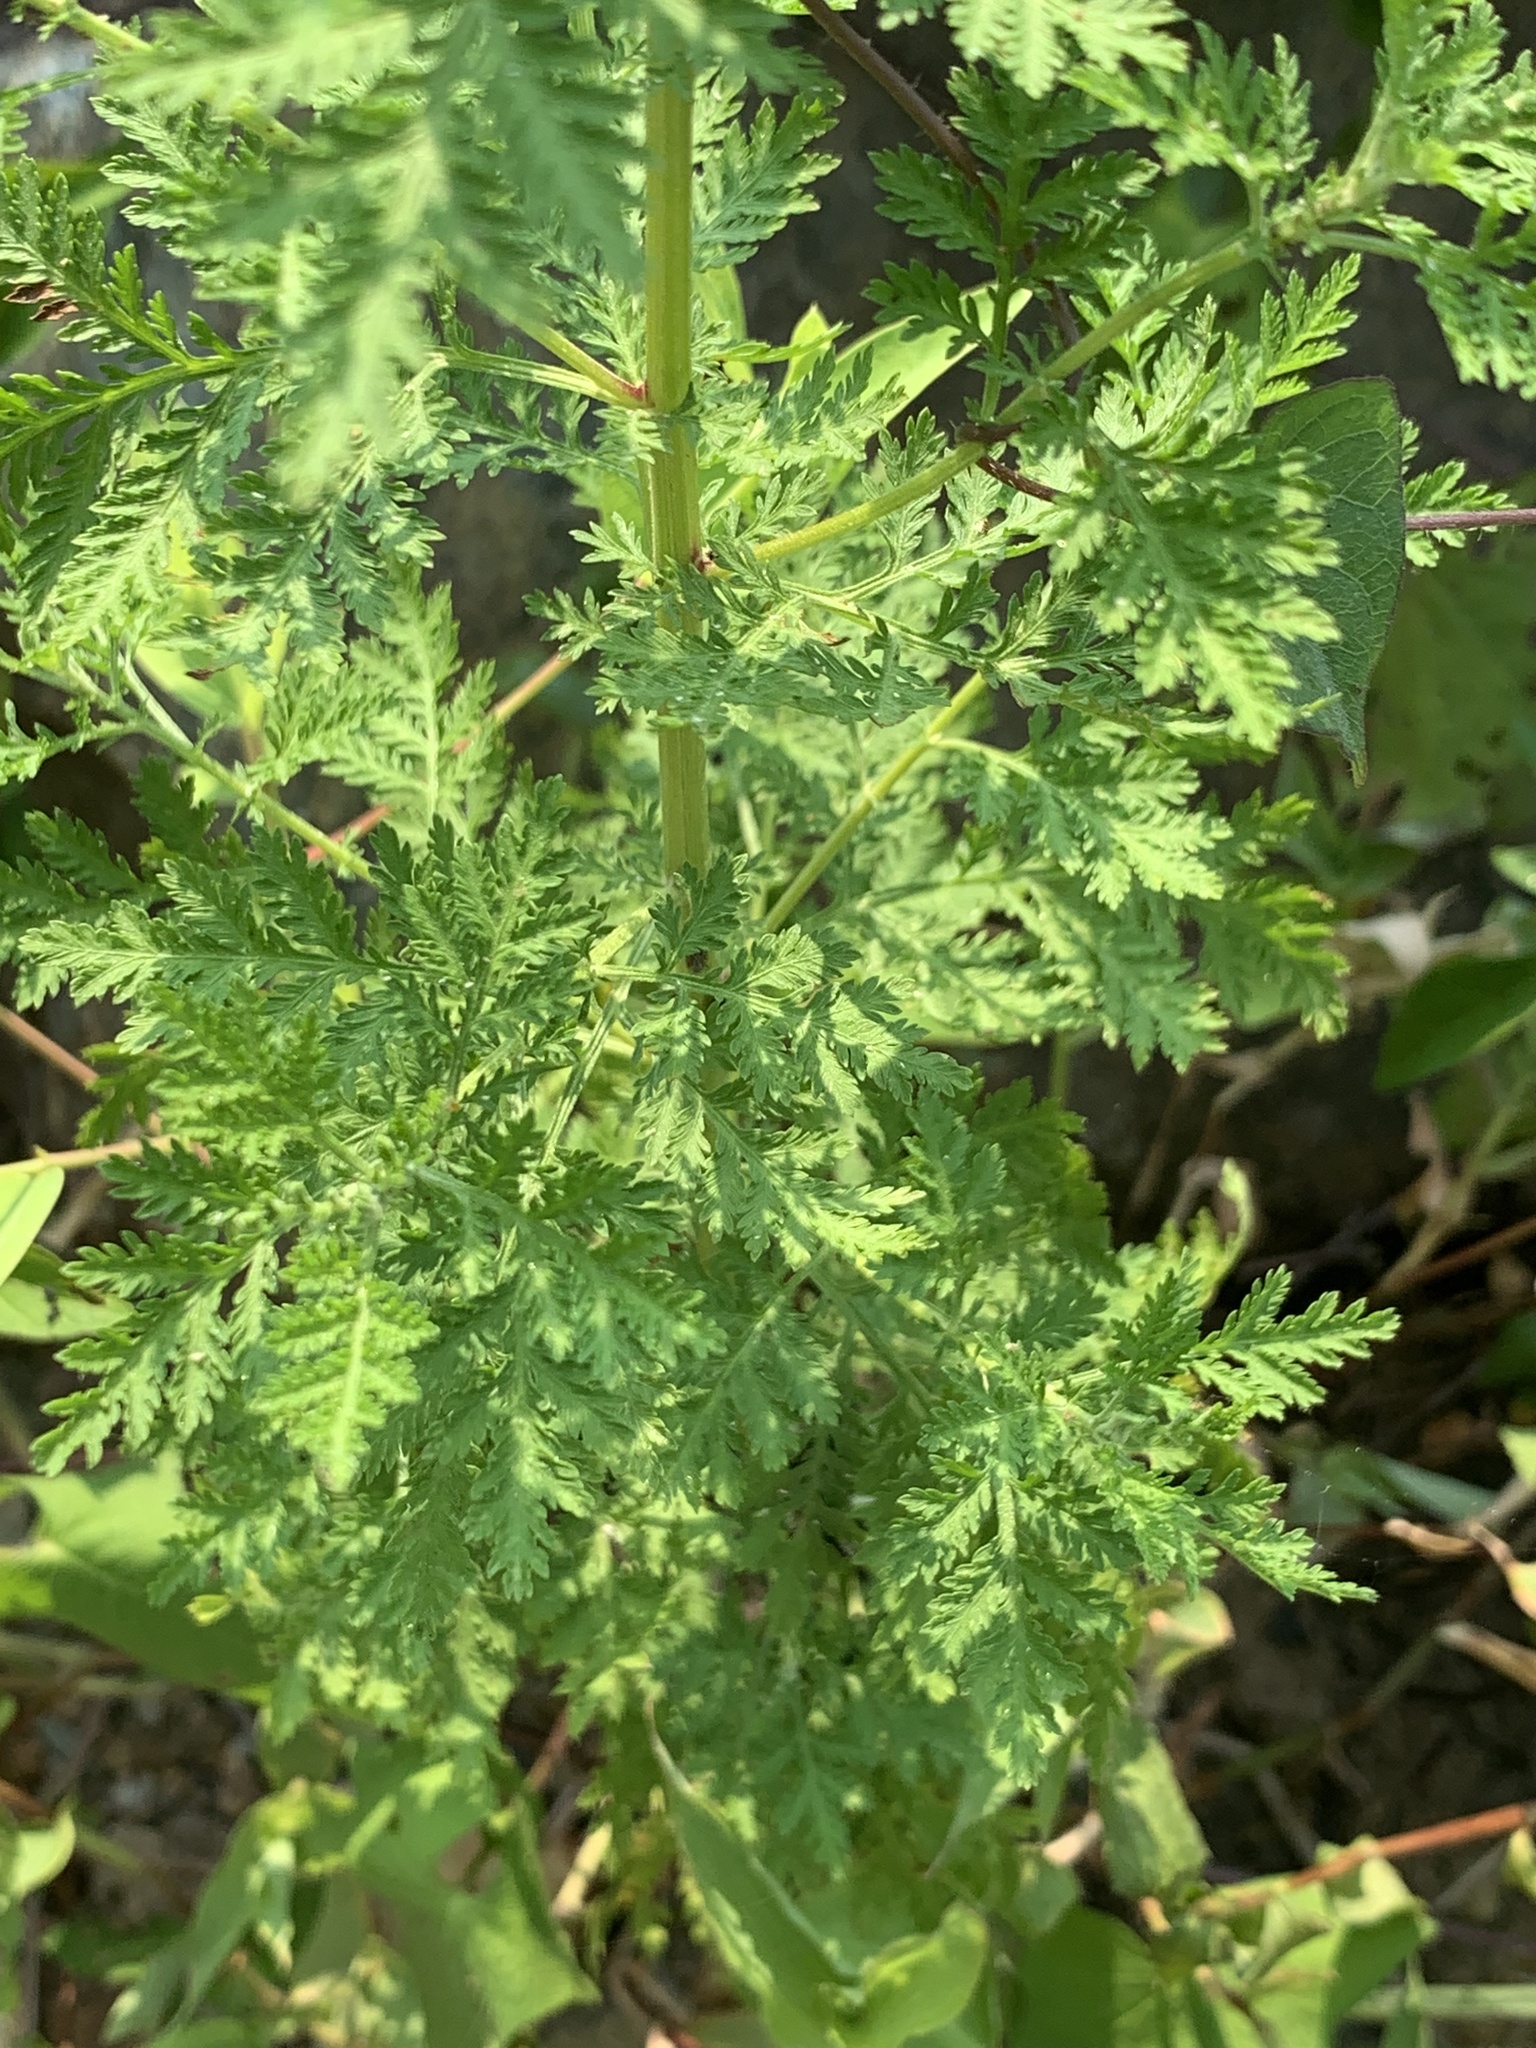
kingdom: Plantae
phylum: Tracheophyta
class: Magnoliopsida
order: Asterales
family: Asteraceae
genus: Artemisia
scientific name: Artemisia annua
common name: Sweet sagewort
